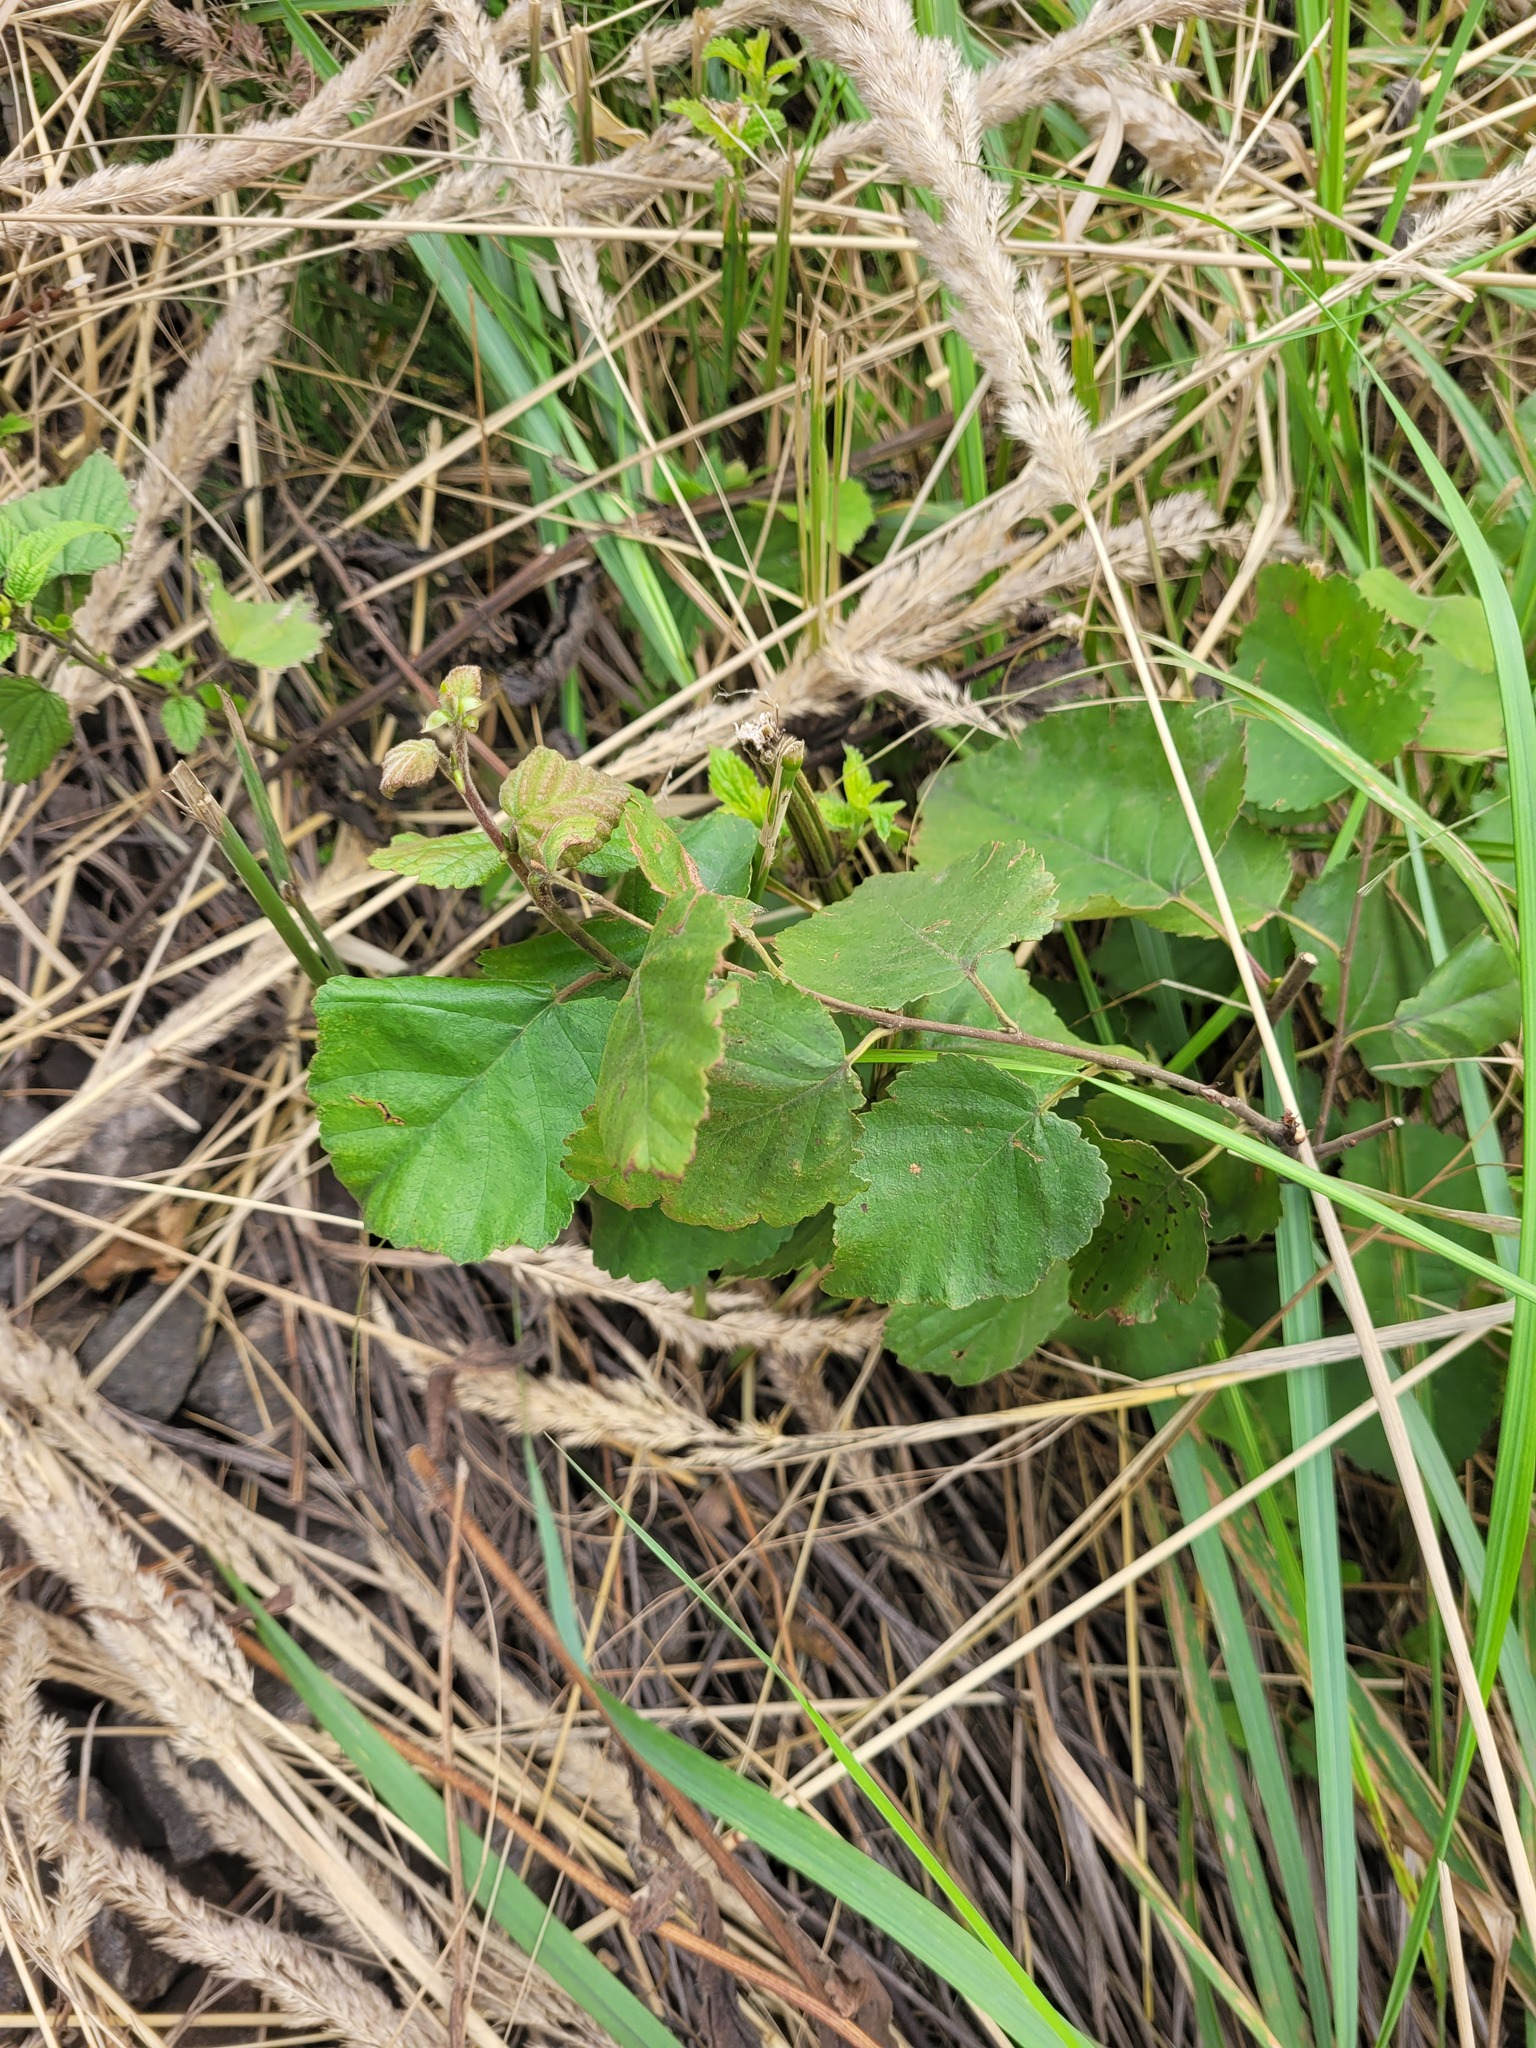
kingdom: Plantae
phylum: Tracheophyta
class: Magnoliopsida
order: Fagales
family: Betulaceae
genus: Betula
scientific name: Betula pubescens
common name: Downy birch
